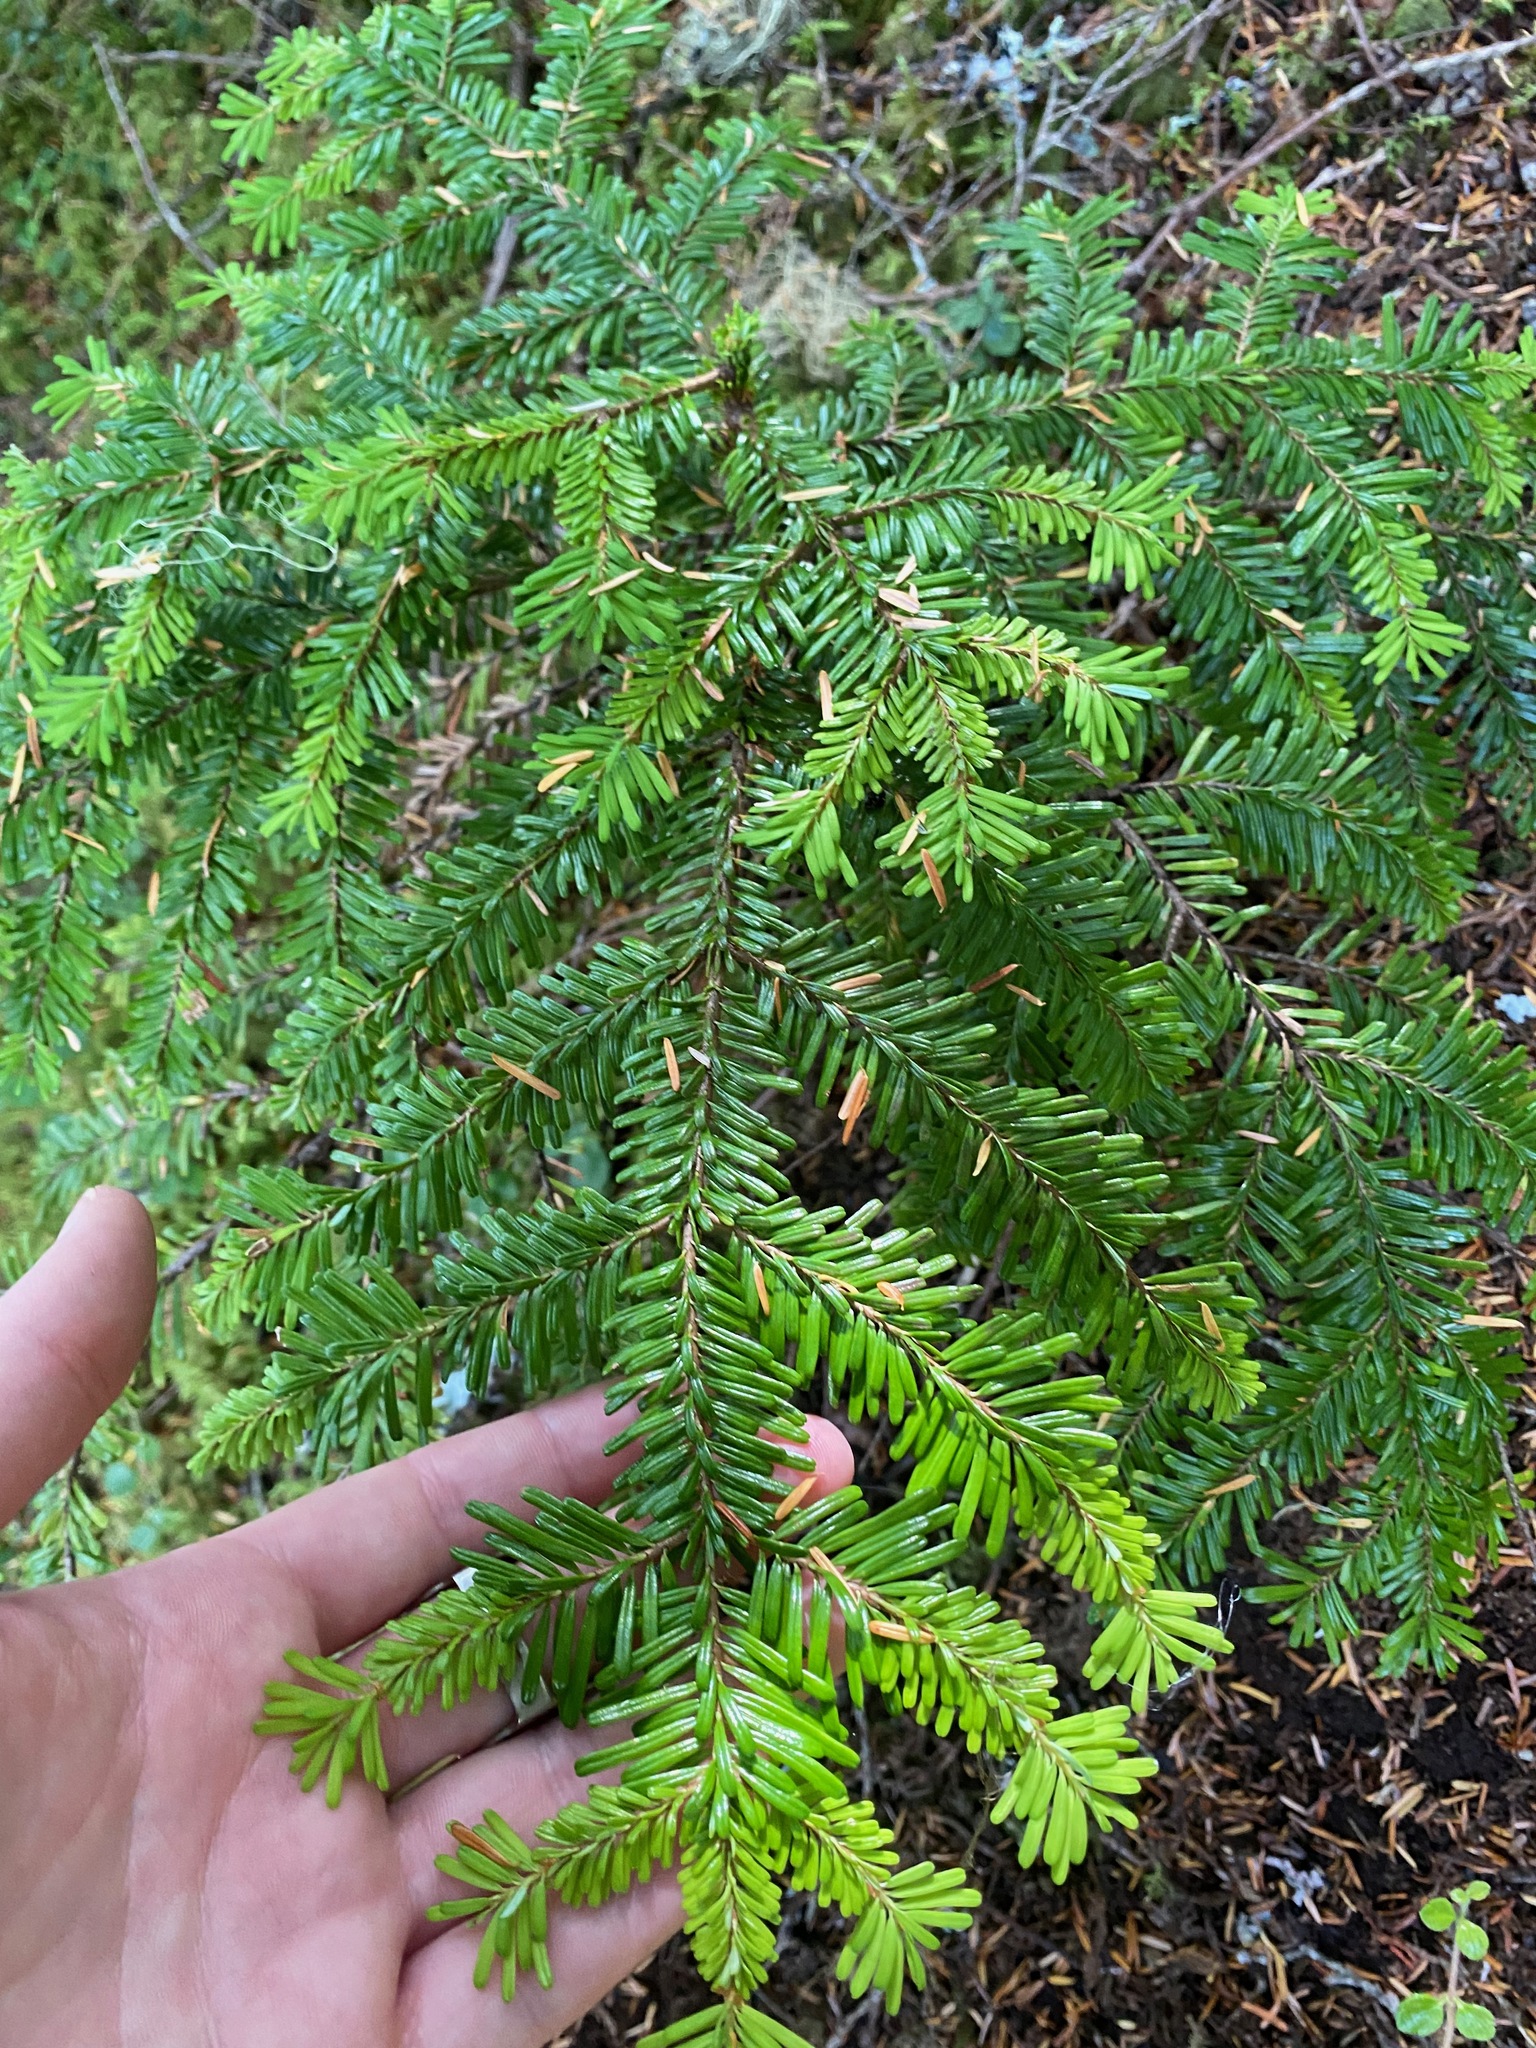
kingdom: Plantae
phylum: Tracheophyta
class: Pinopsida
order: Pinales
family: Pinaceae
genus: Abies
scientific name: Abies amabilis
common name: Pacific silver fir
